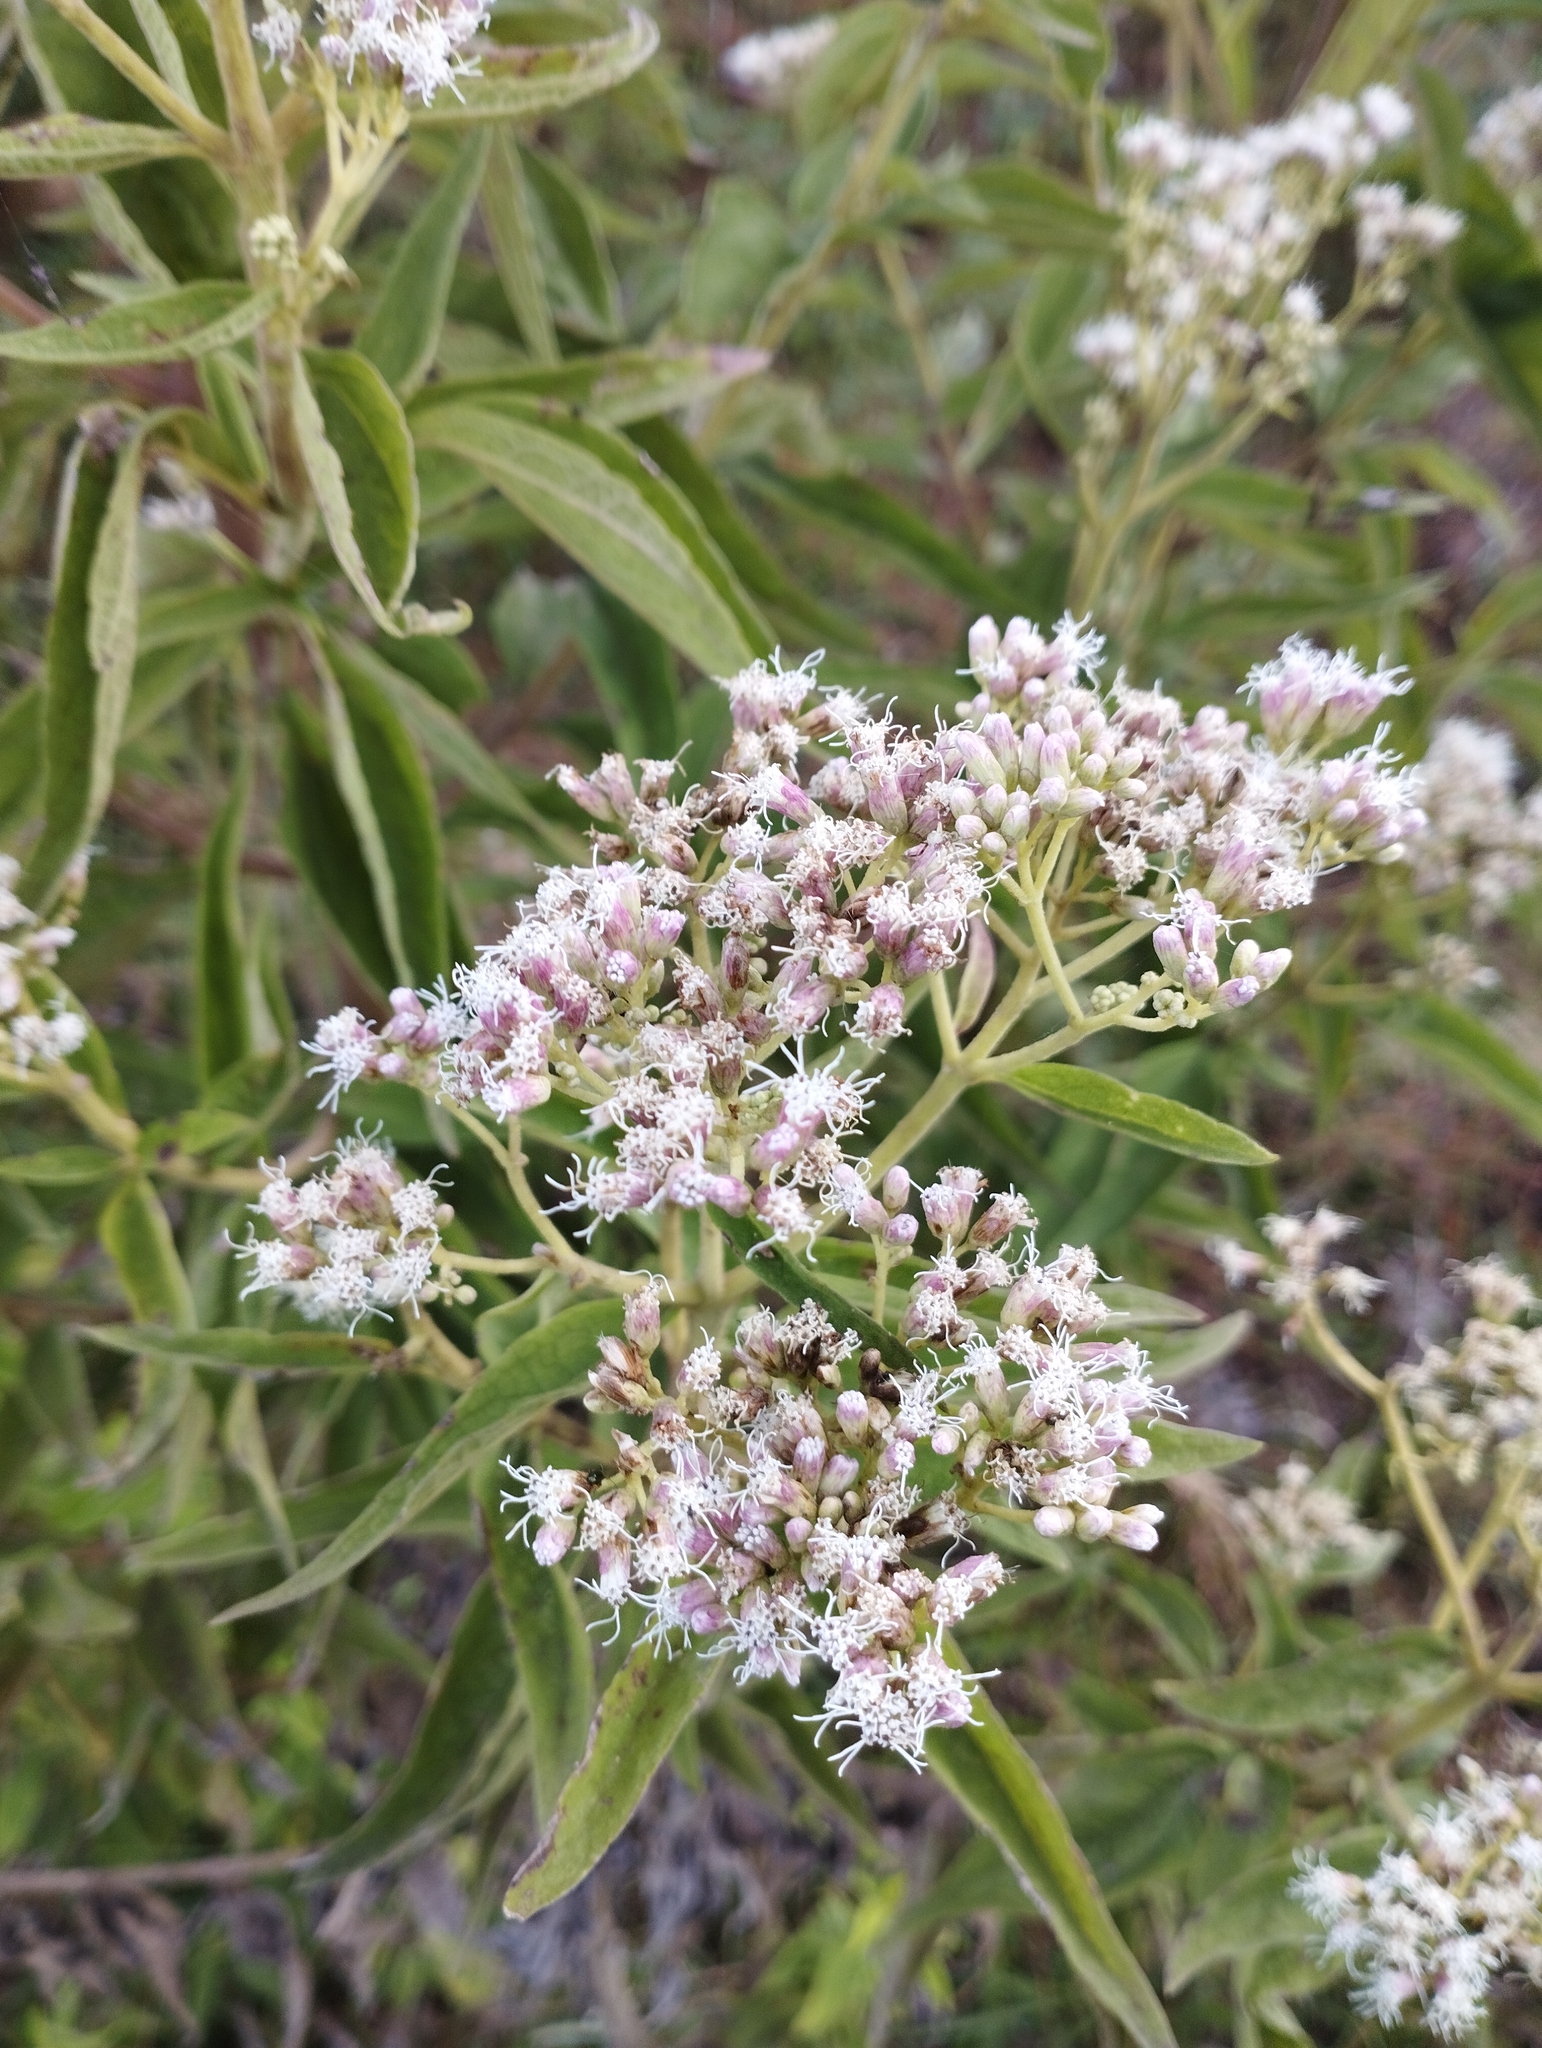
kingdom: Plantae
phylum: Tracheophyta
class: Magnoliopsida
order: Asterales
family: Asteraceae
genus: Austroeupatorium
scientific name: Austroeupatorium inulifolium
